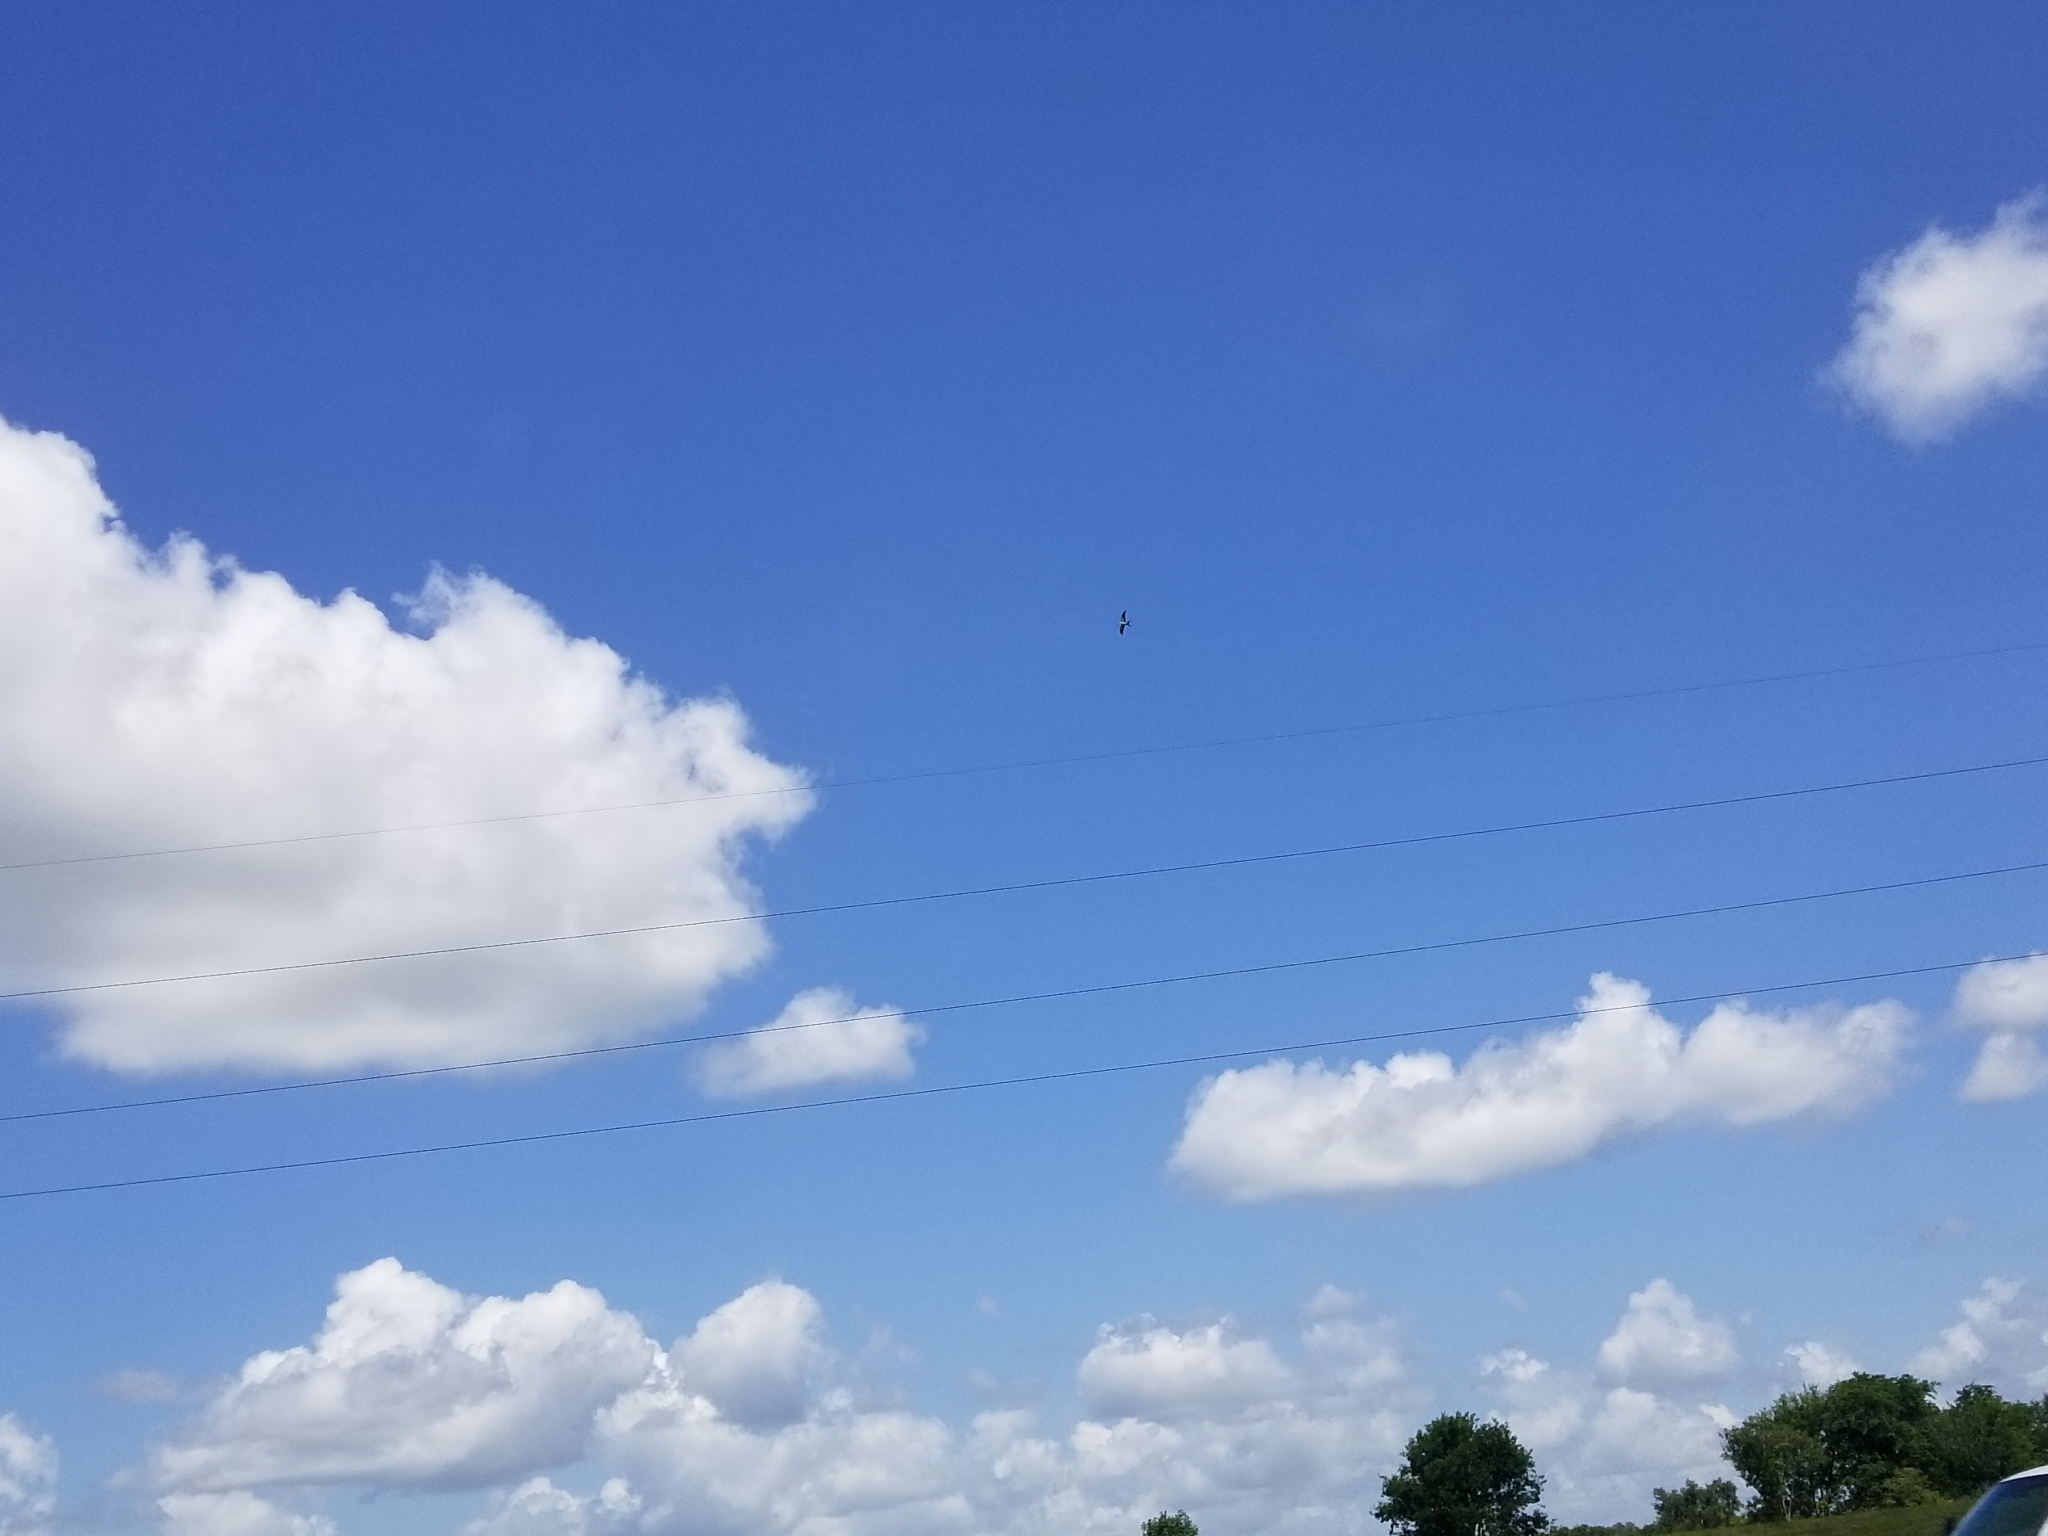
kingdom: Animalia
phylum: Chordata
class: Aves
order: Accipitriformes
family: Accipitridae
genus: Elanoides
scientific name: Elanoides forficatus
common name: Swallow-tailed kite
